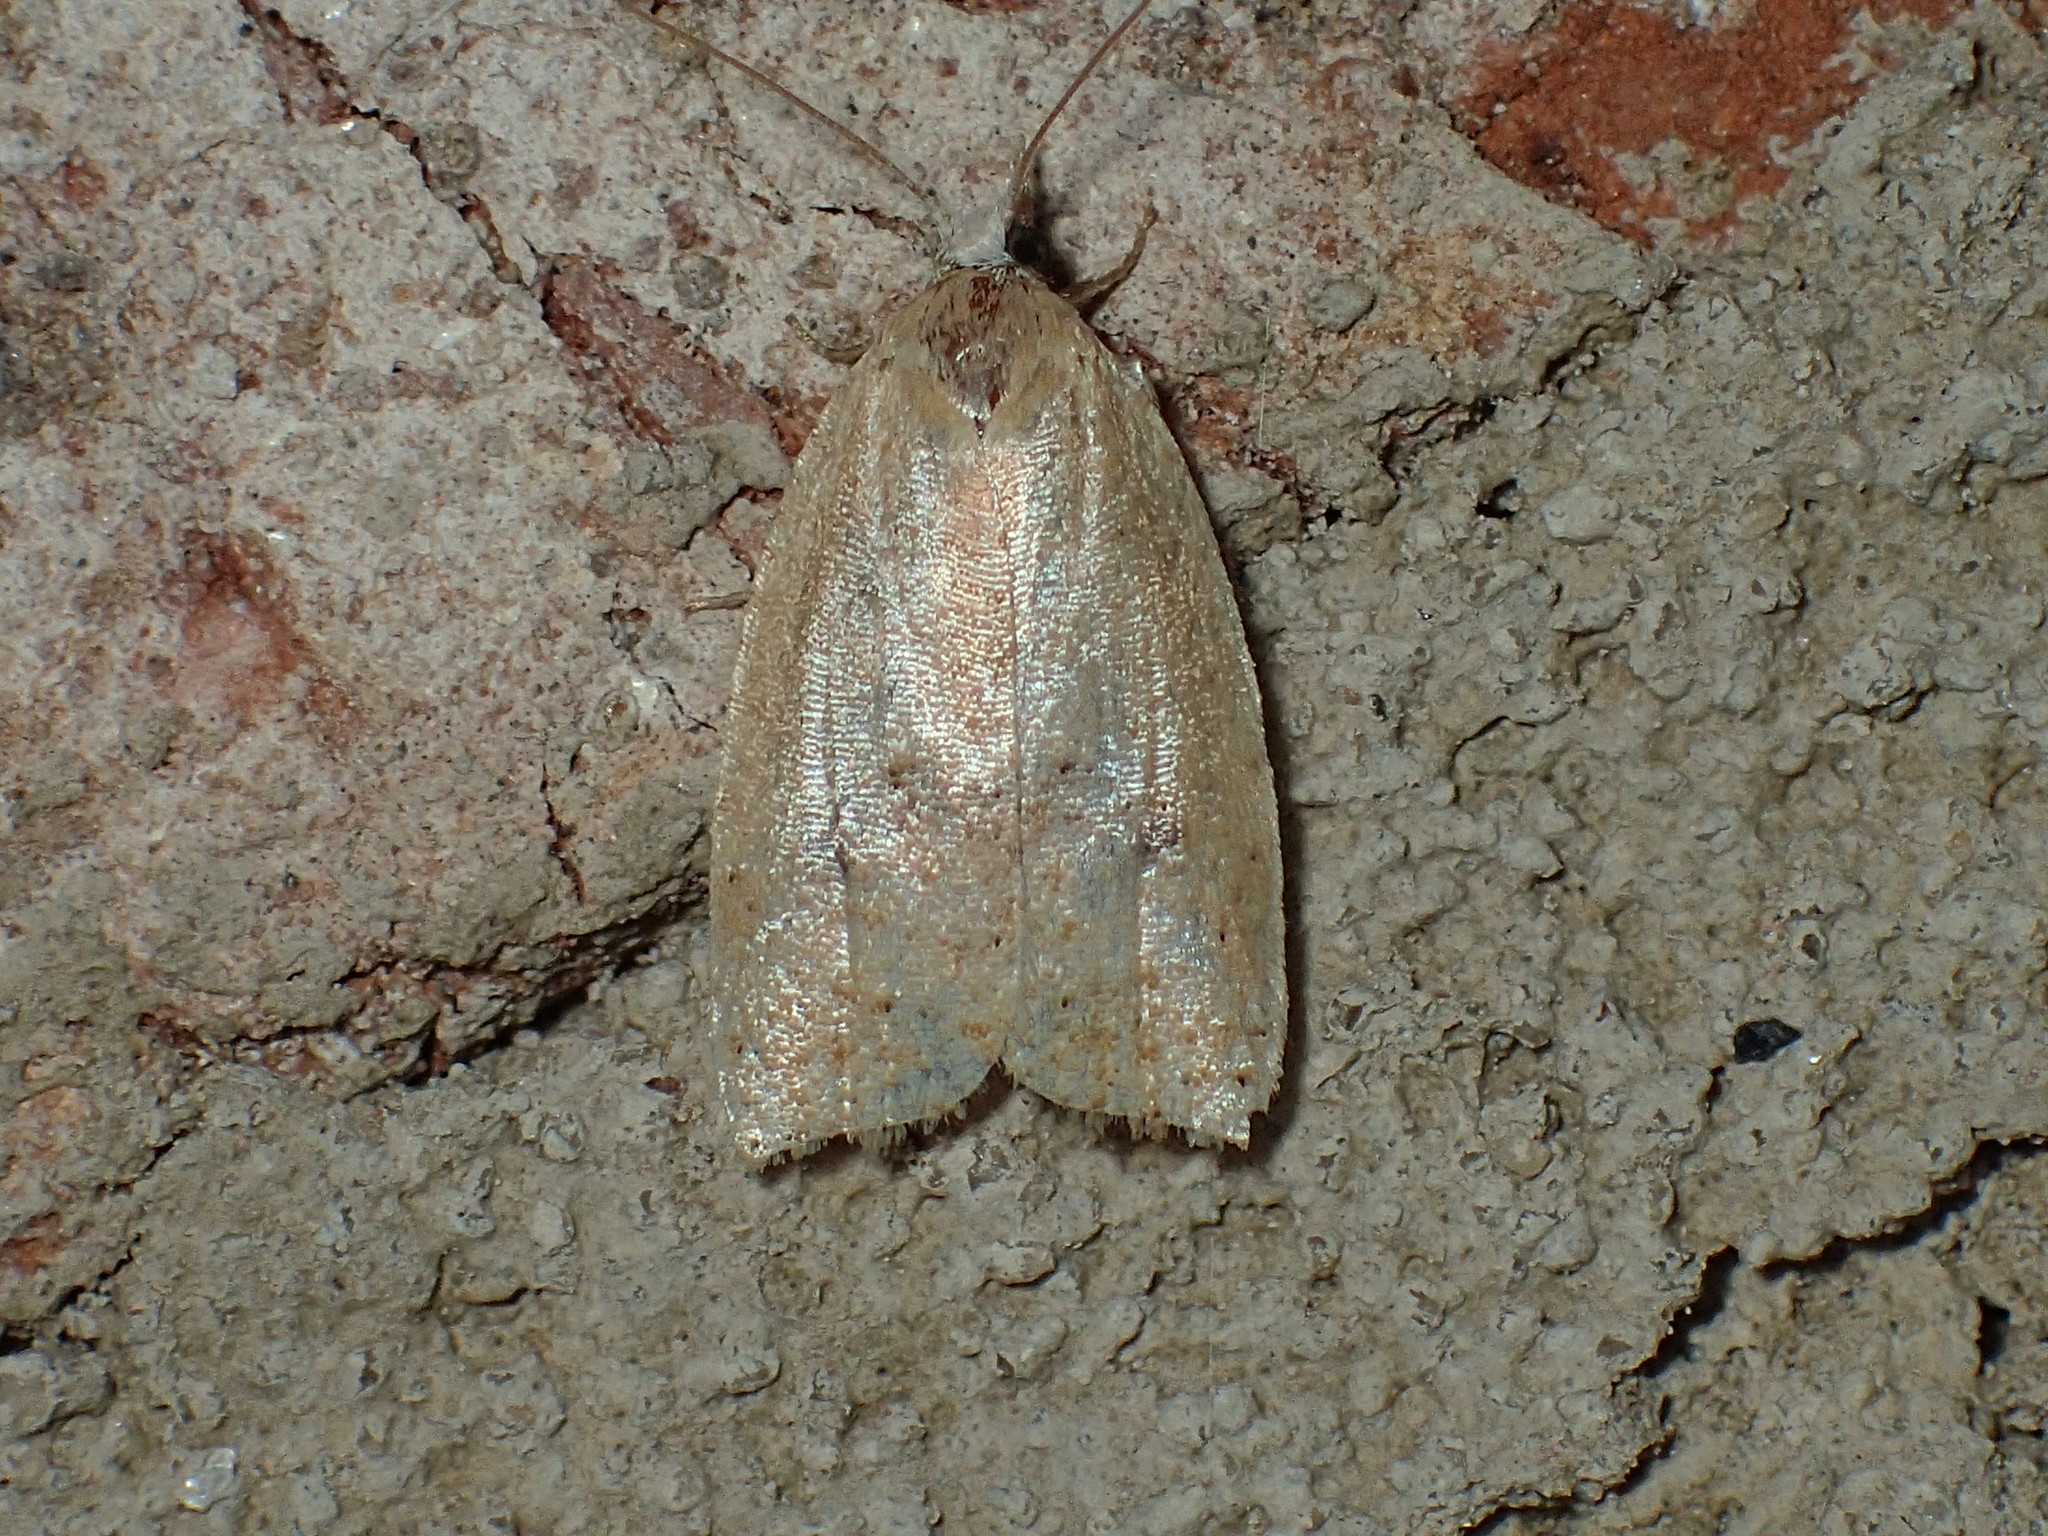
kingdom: Animalia
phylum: Arthropoda
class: Insecta
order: Lepidoptera
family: Tortricidae
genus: Sparganothoides
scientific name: Sparganothoides lentiginosana
